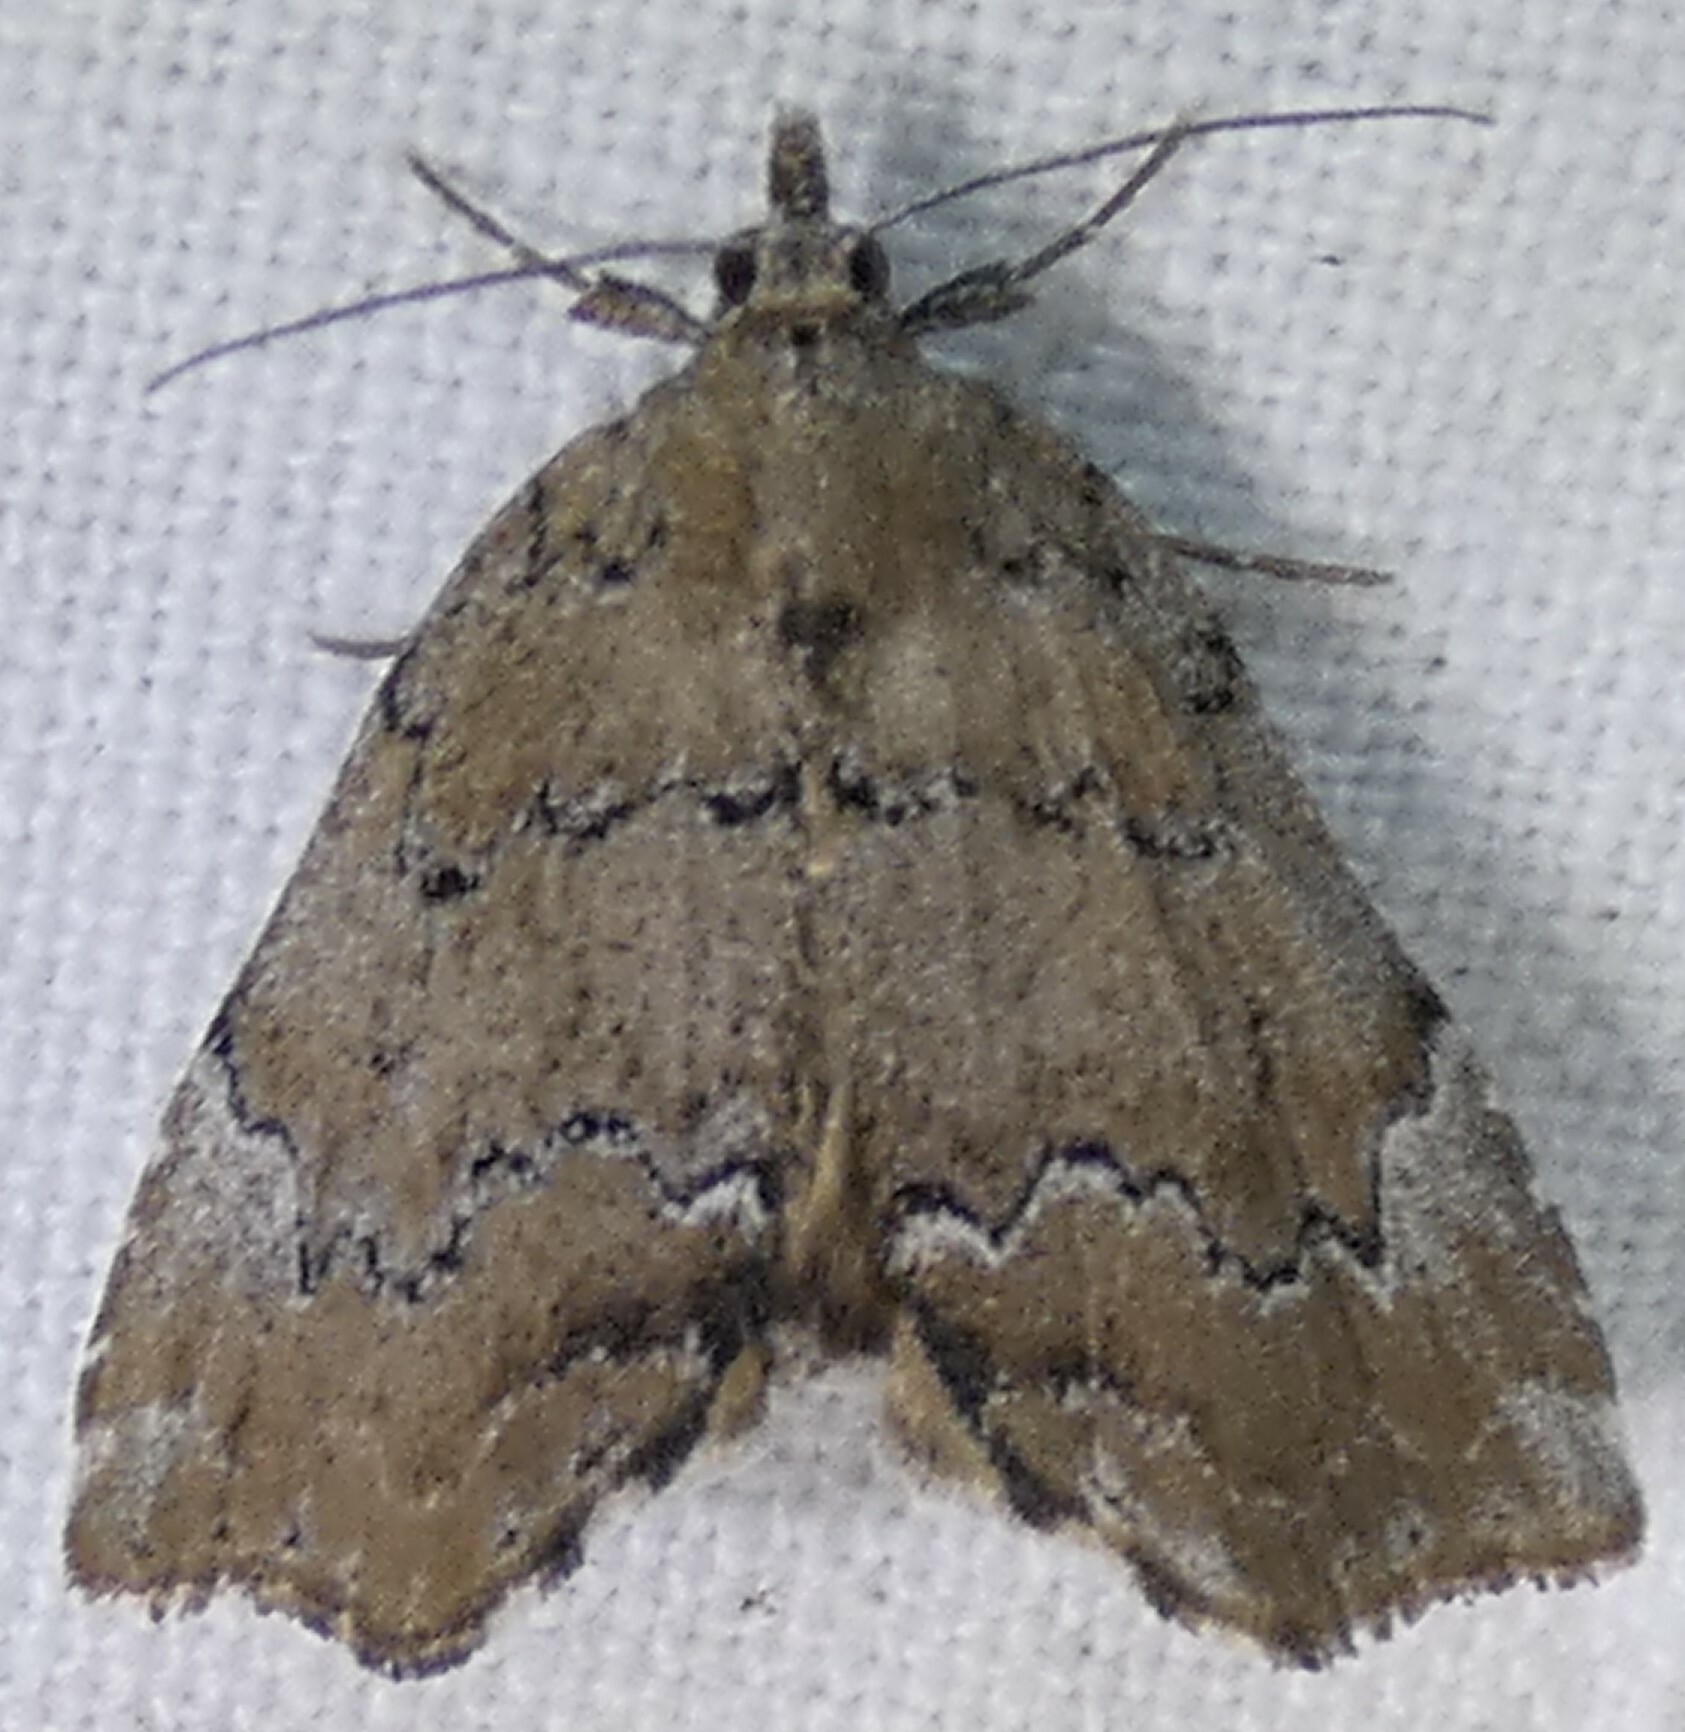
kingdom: Animalia
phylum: Arthropoda
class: Insecta
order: Lepidoptera
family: Erebidae
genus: Cutina
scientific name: Cutina aluticolor
